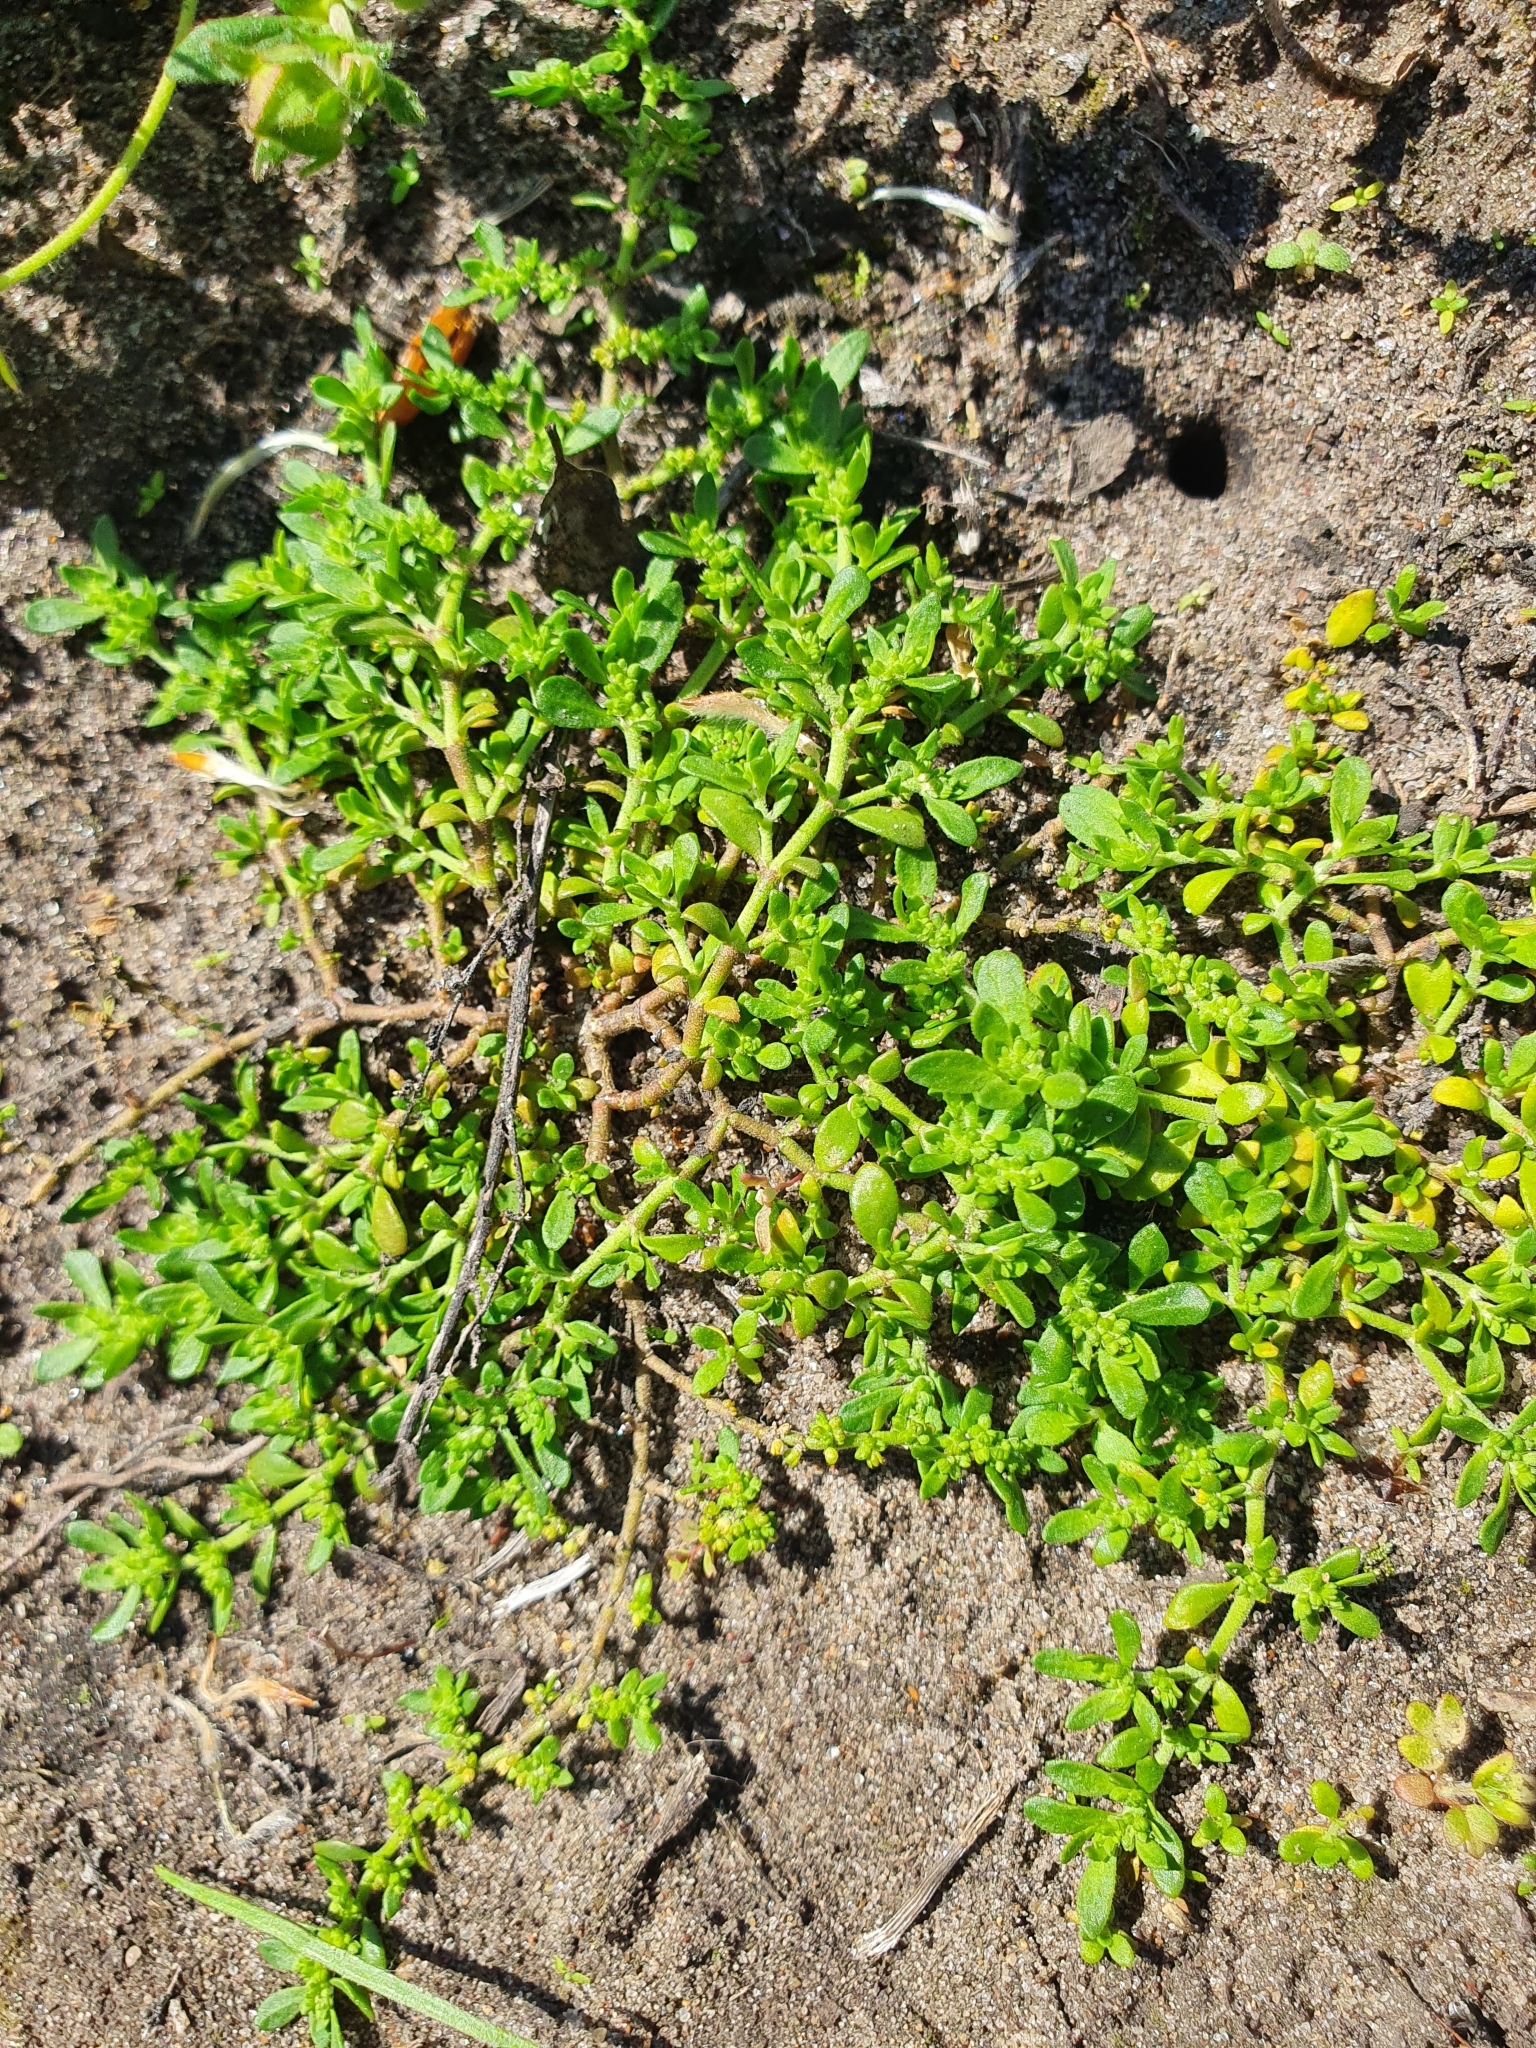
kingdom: Plantae
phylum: Tracheophyta
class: Magnoliopsida
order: Caryophyllales
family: Caryophyllaceae
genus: Herniaria
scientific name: Herniaria glabra
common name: Smooth rupturewort
